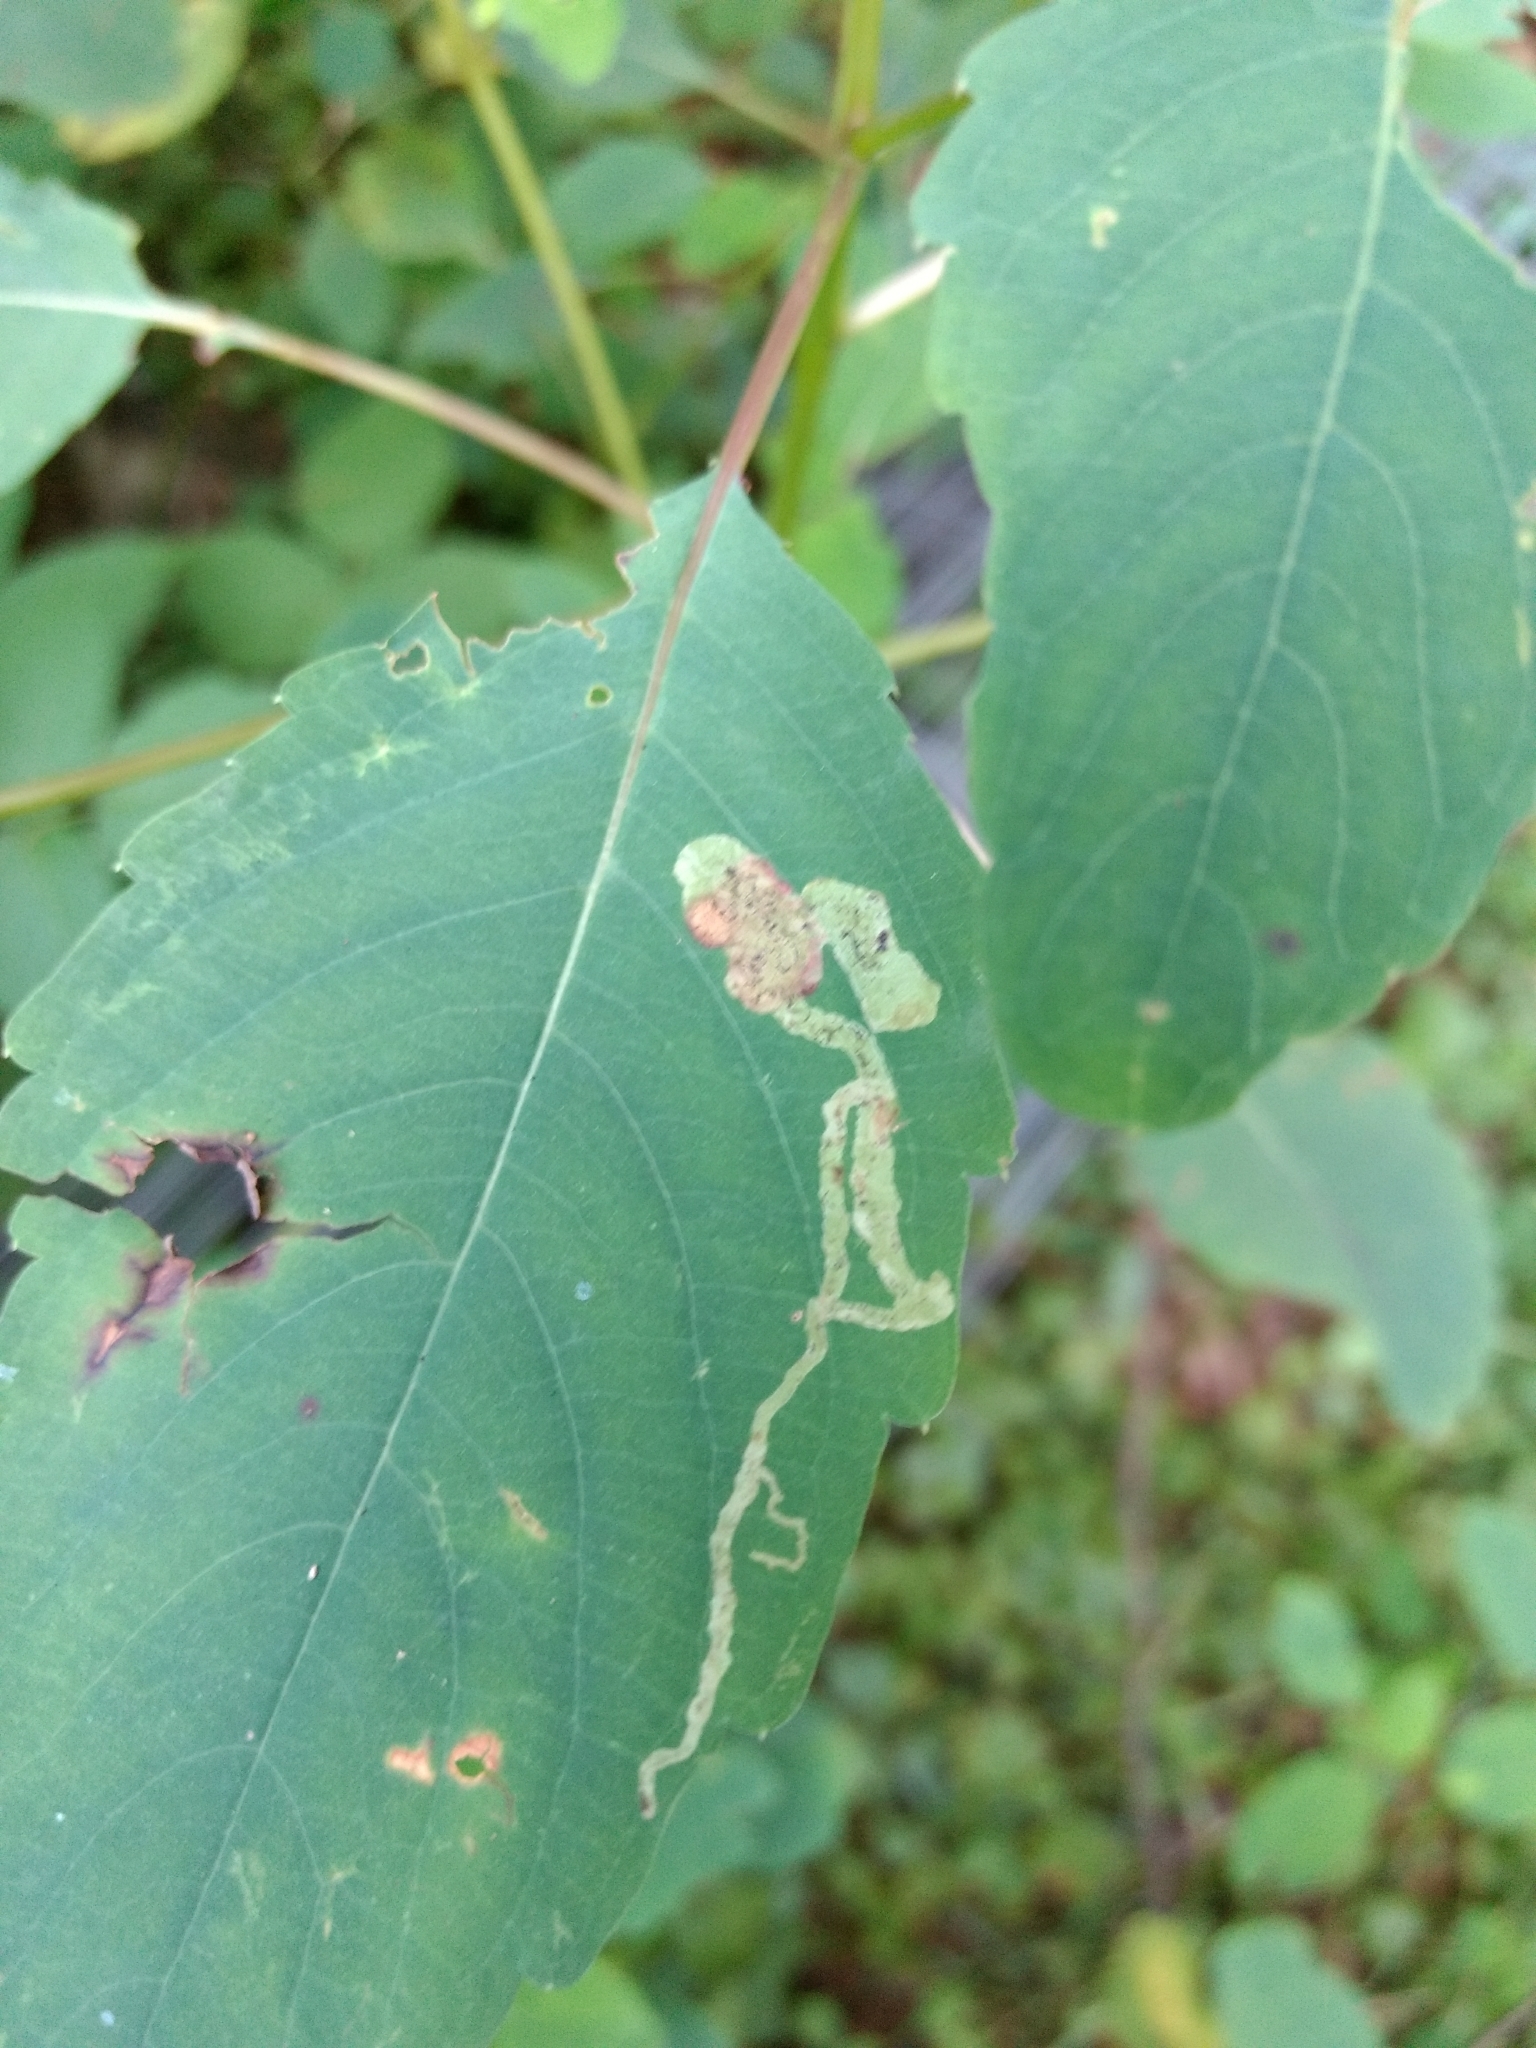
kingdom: Animalia
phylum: Arthropoda
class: Insecta
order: Diptera
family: Agromyzidae
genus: Phytoliriomyza
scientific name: Phytoliriomyza melampyga
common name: Jewelweed leaf-miner fly
